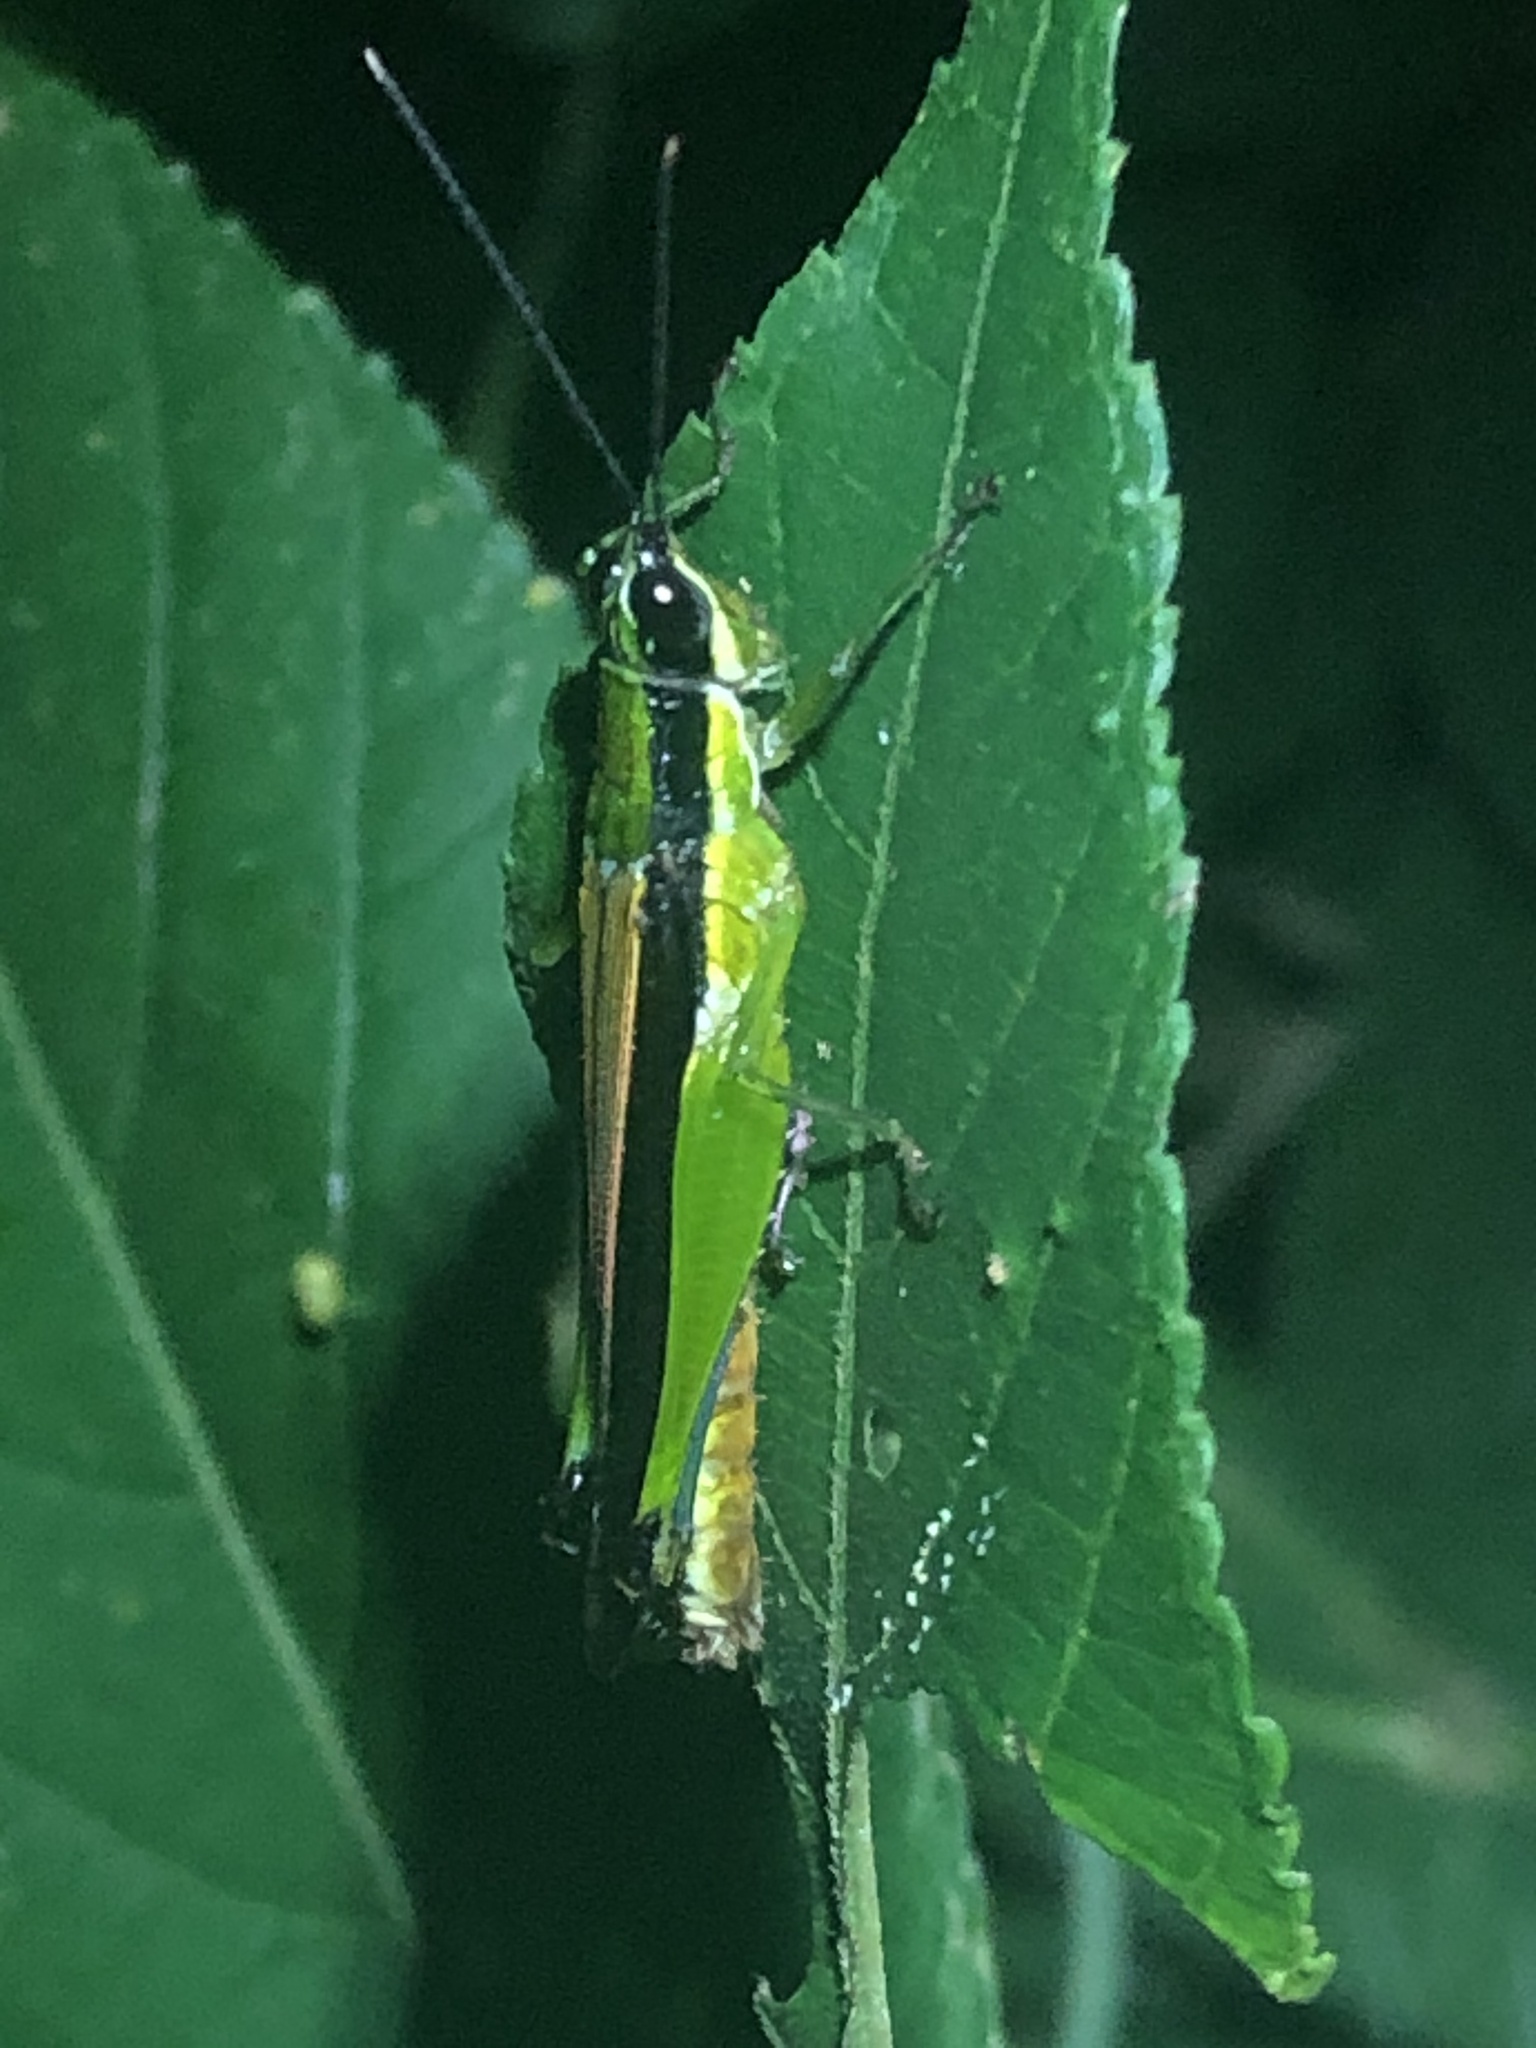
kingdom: Animalia
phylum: Arthropoda
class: Insecta
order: Orthoptera
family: Acrididae
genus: Stenopola
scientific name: Stenopola boliviana
